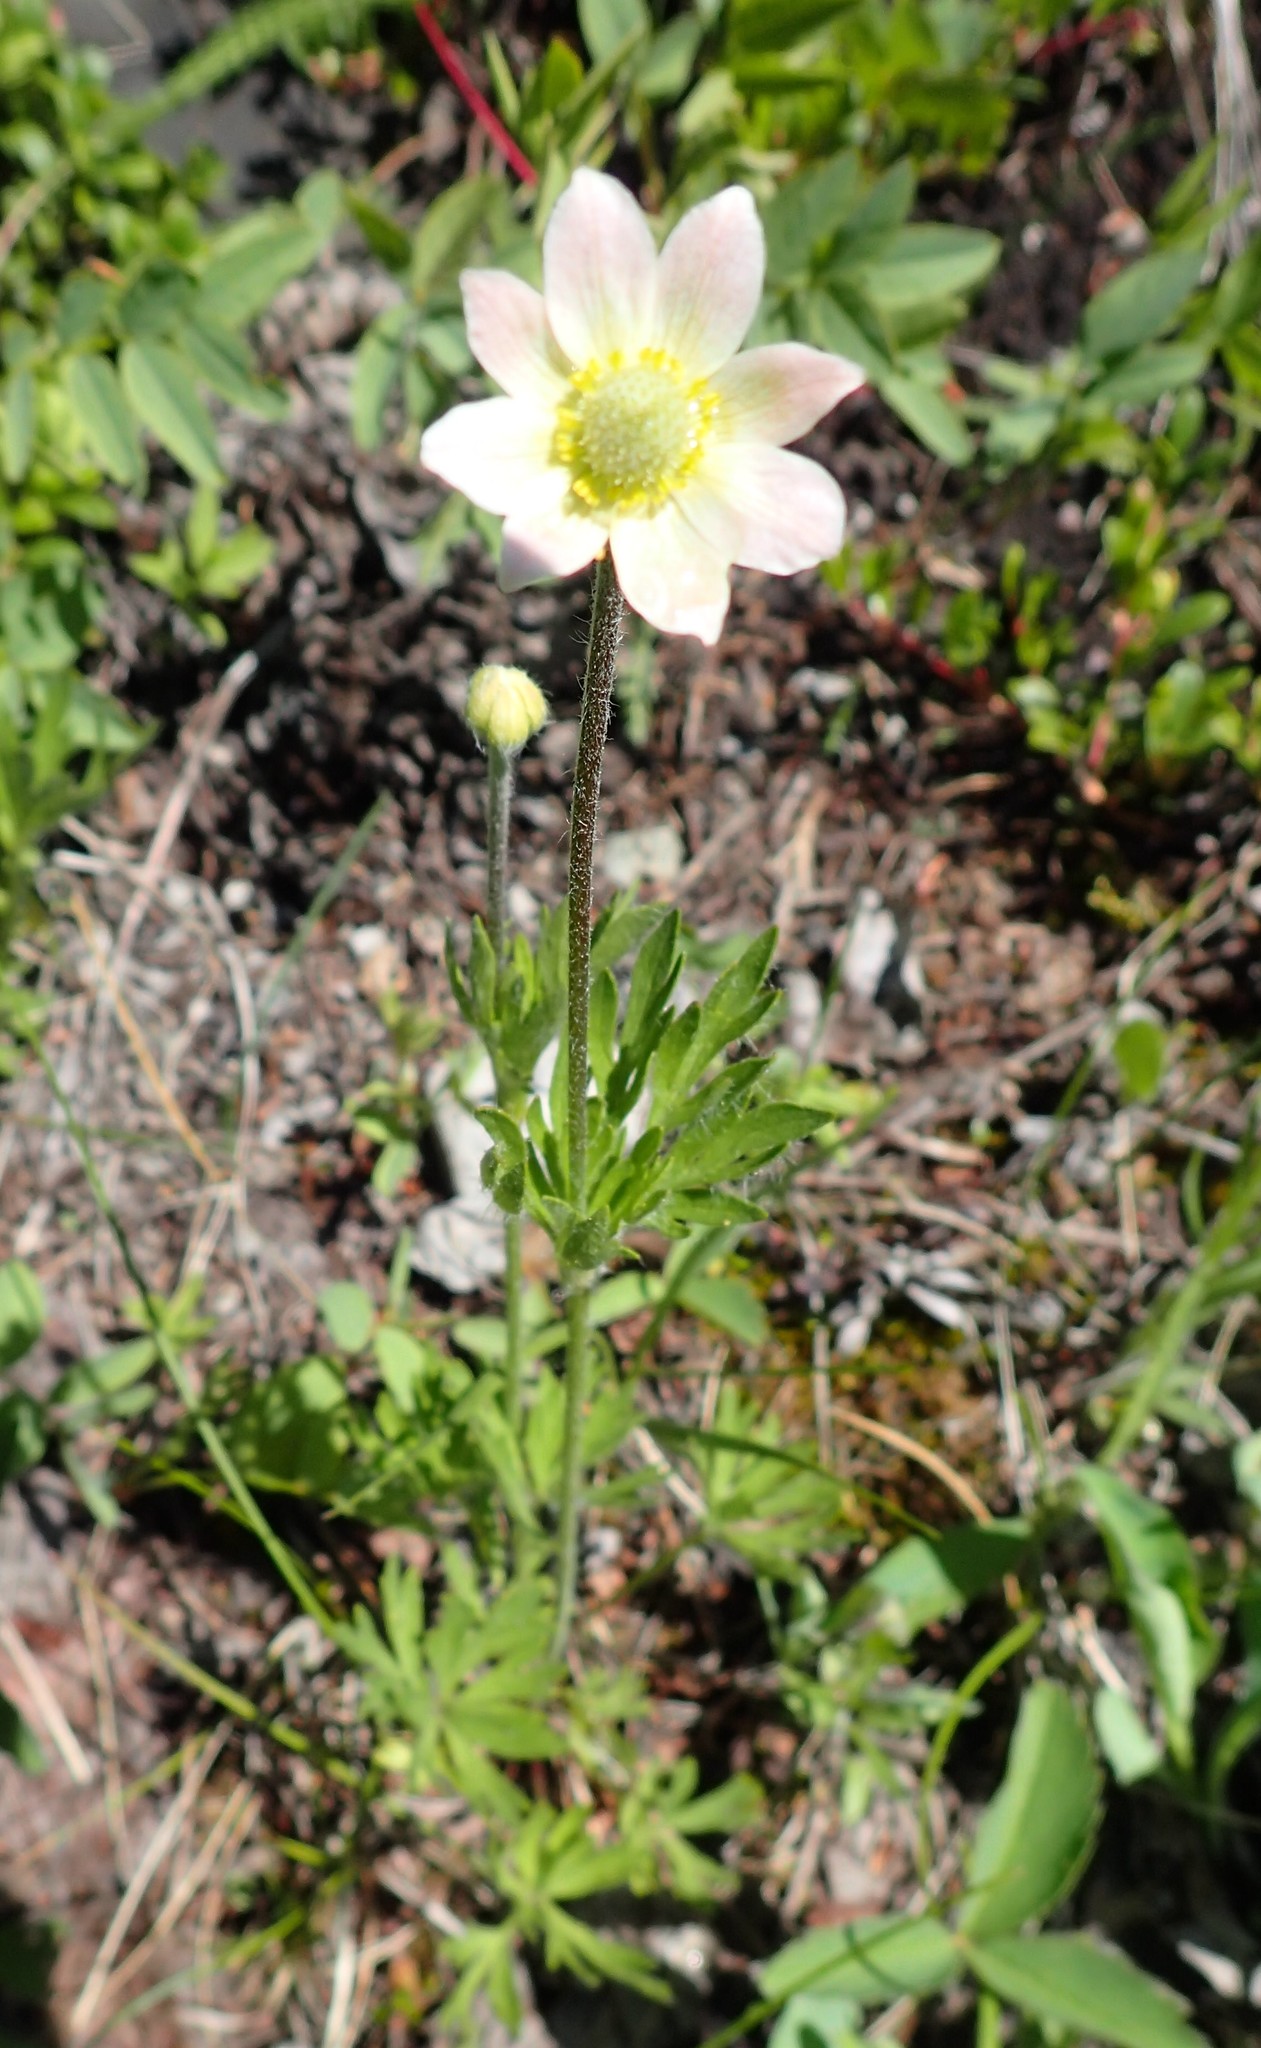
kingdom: Plantae
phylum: Tracheophyta
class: Magnoliopsida
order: Ranunculales
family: Ranunculaceae
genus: Anemone
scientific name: Anemone multifida
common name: Bird's-foot anemone
